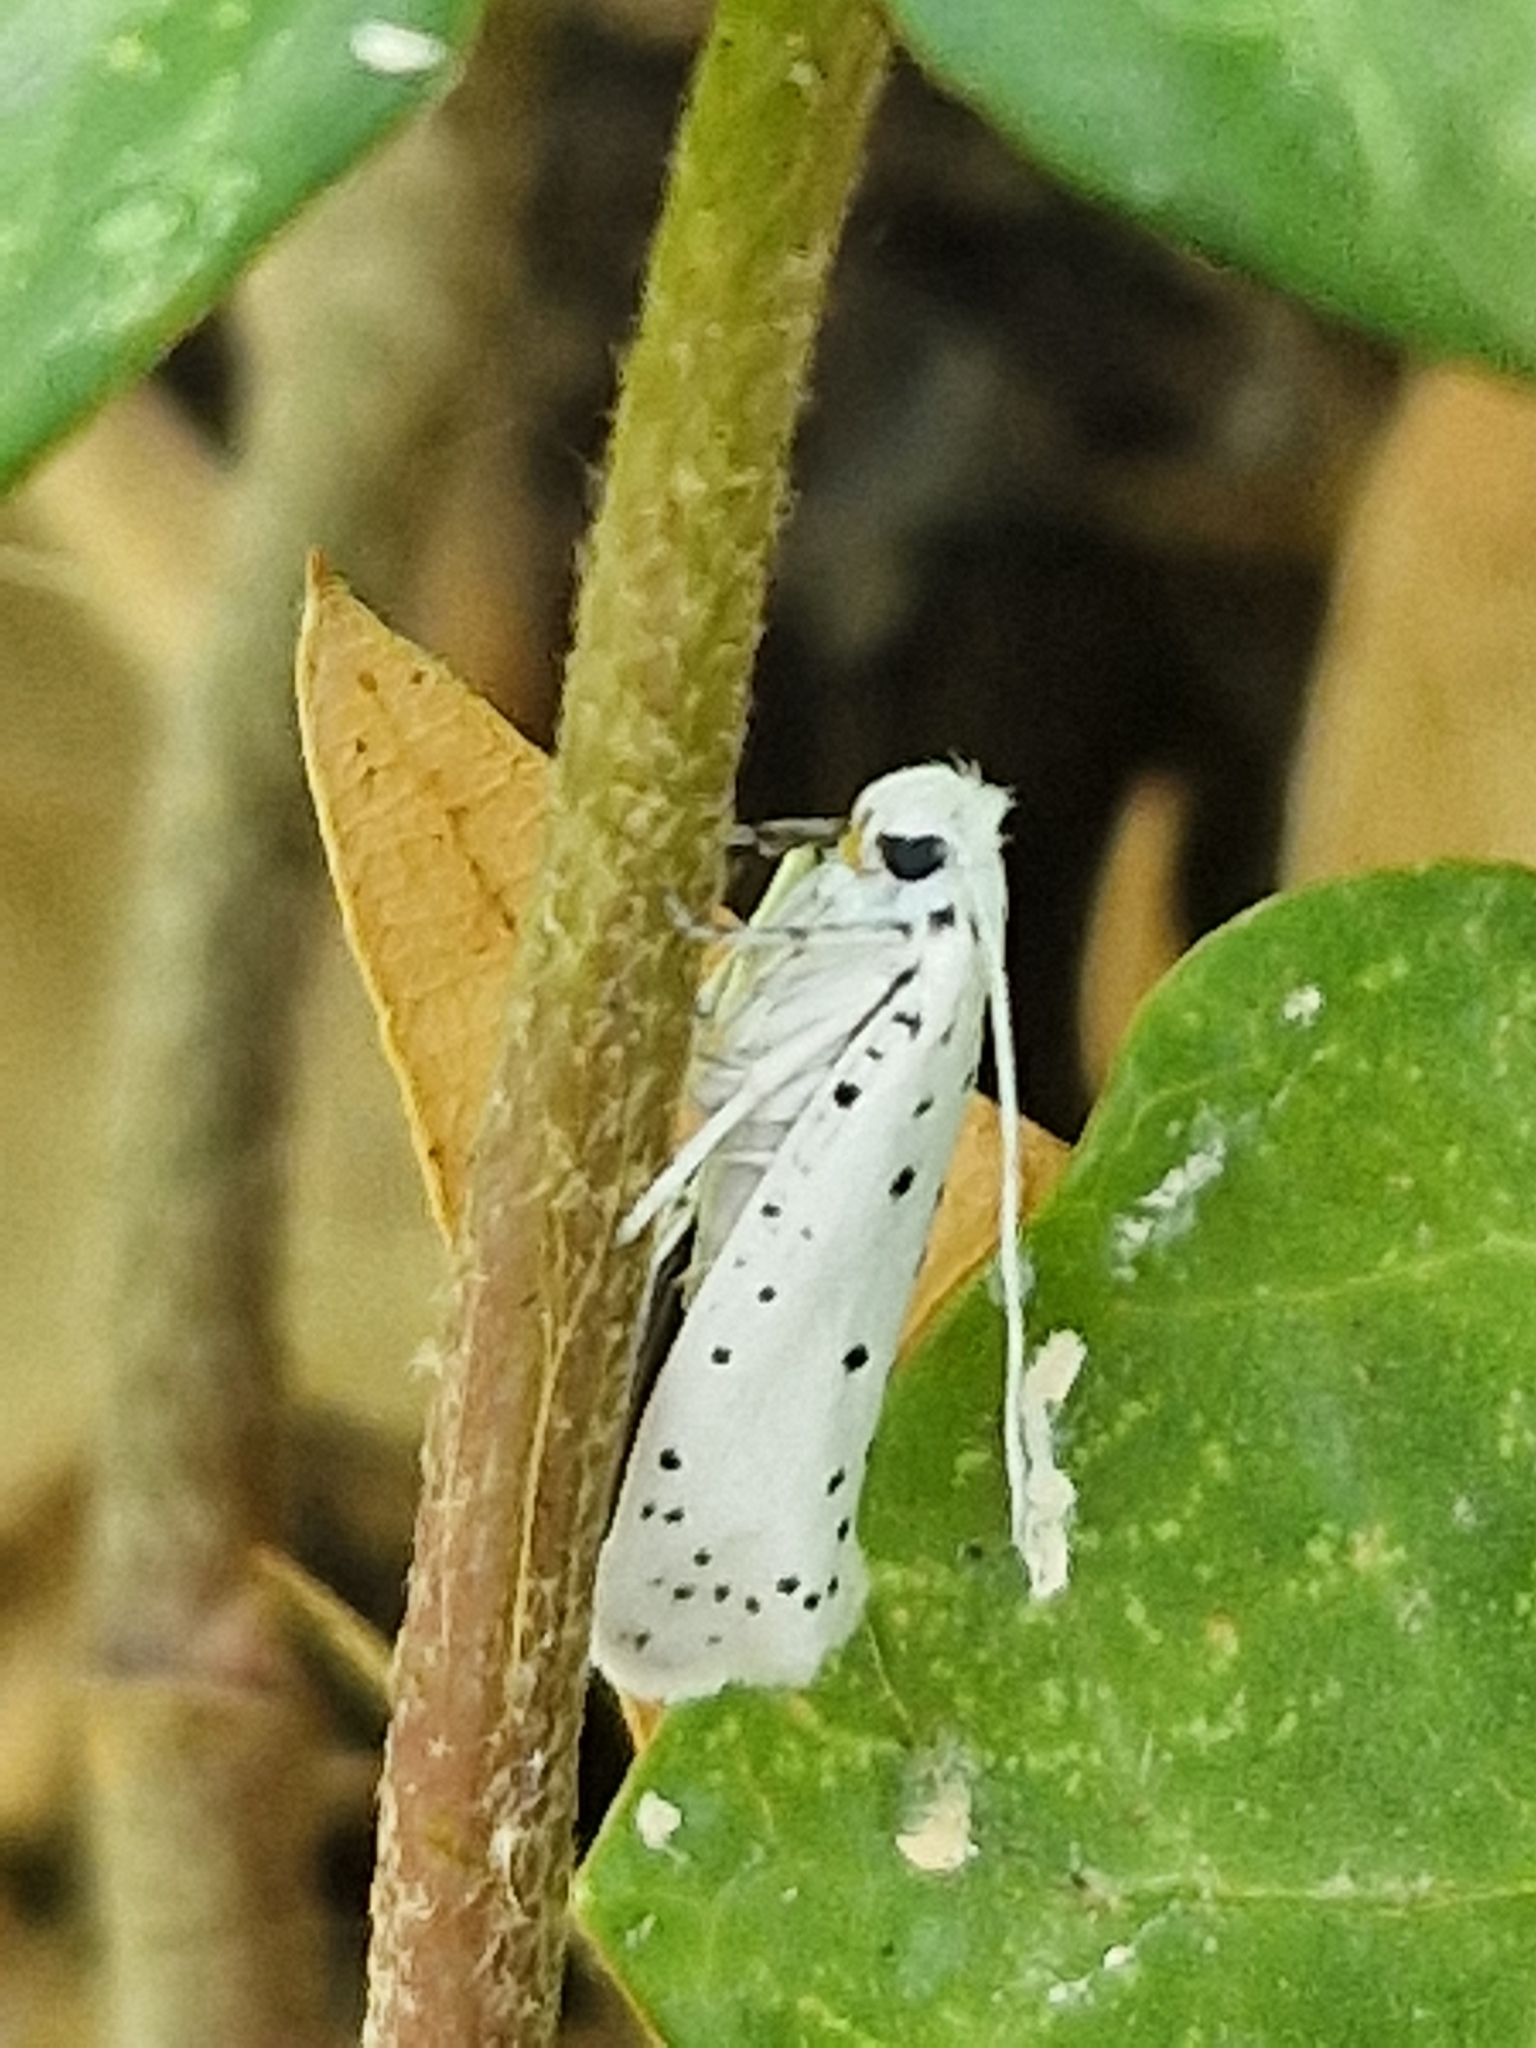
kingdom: Animalia
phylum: Arthropoda
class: Insecta
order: Lepidoptera
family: Yponomeutidae
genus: Yponomeuta
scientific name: Yponomeuta
